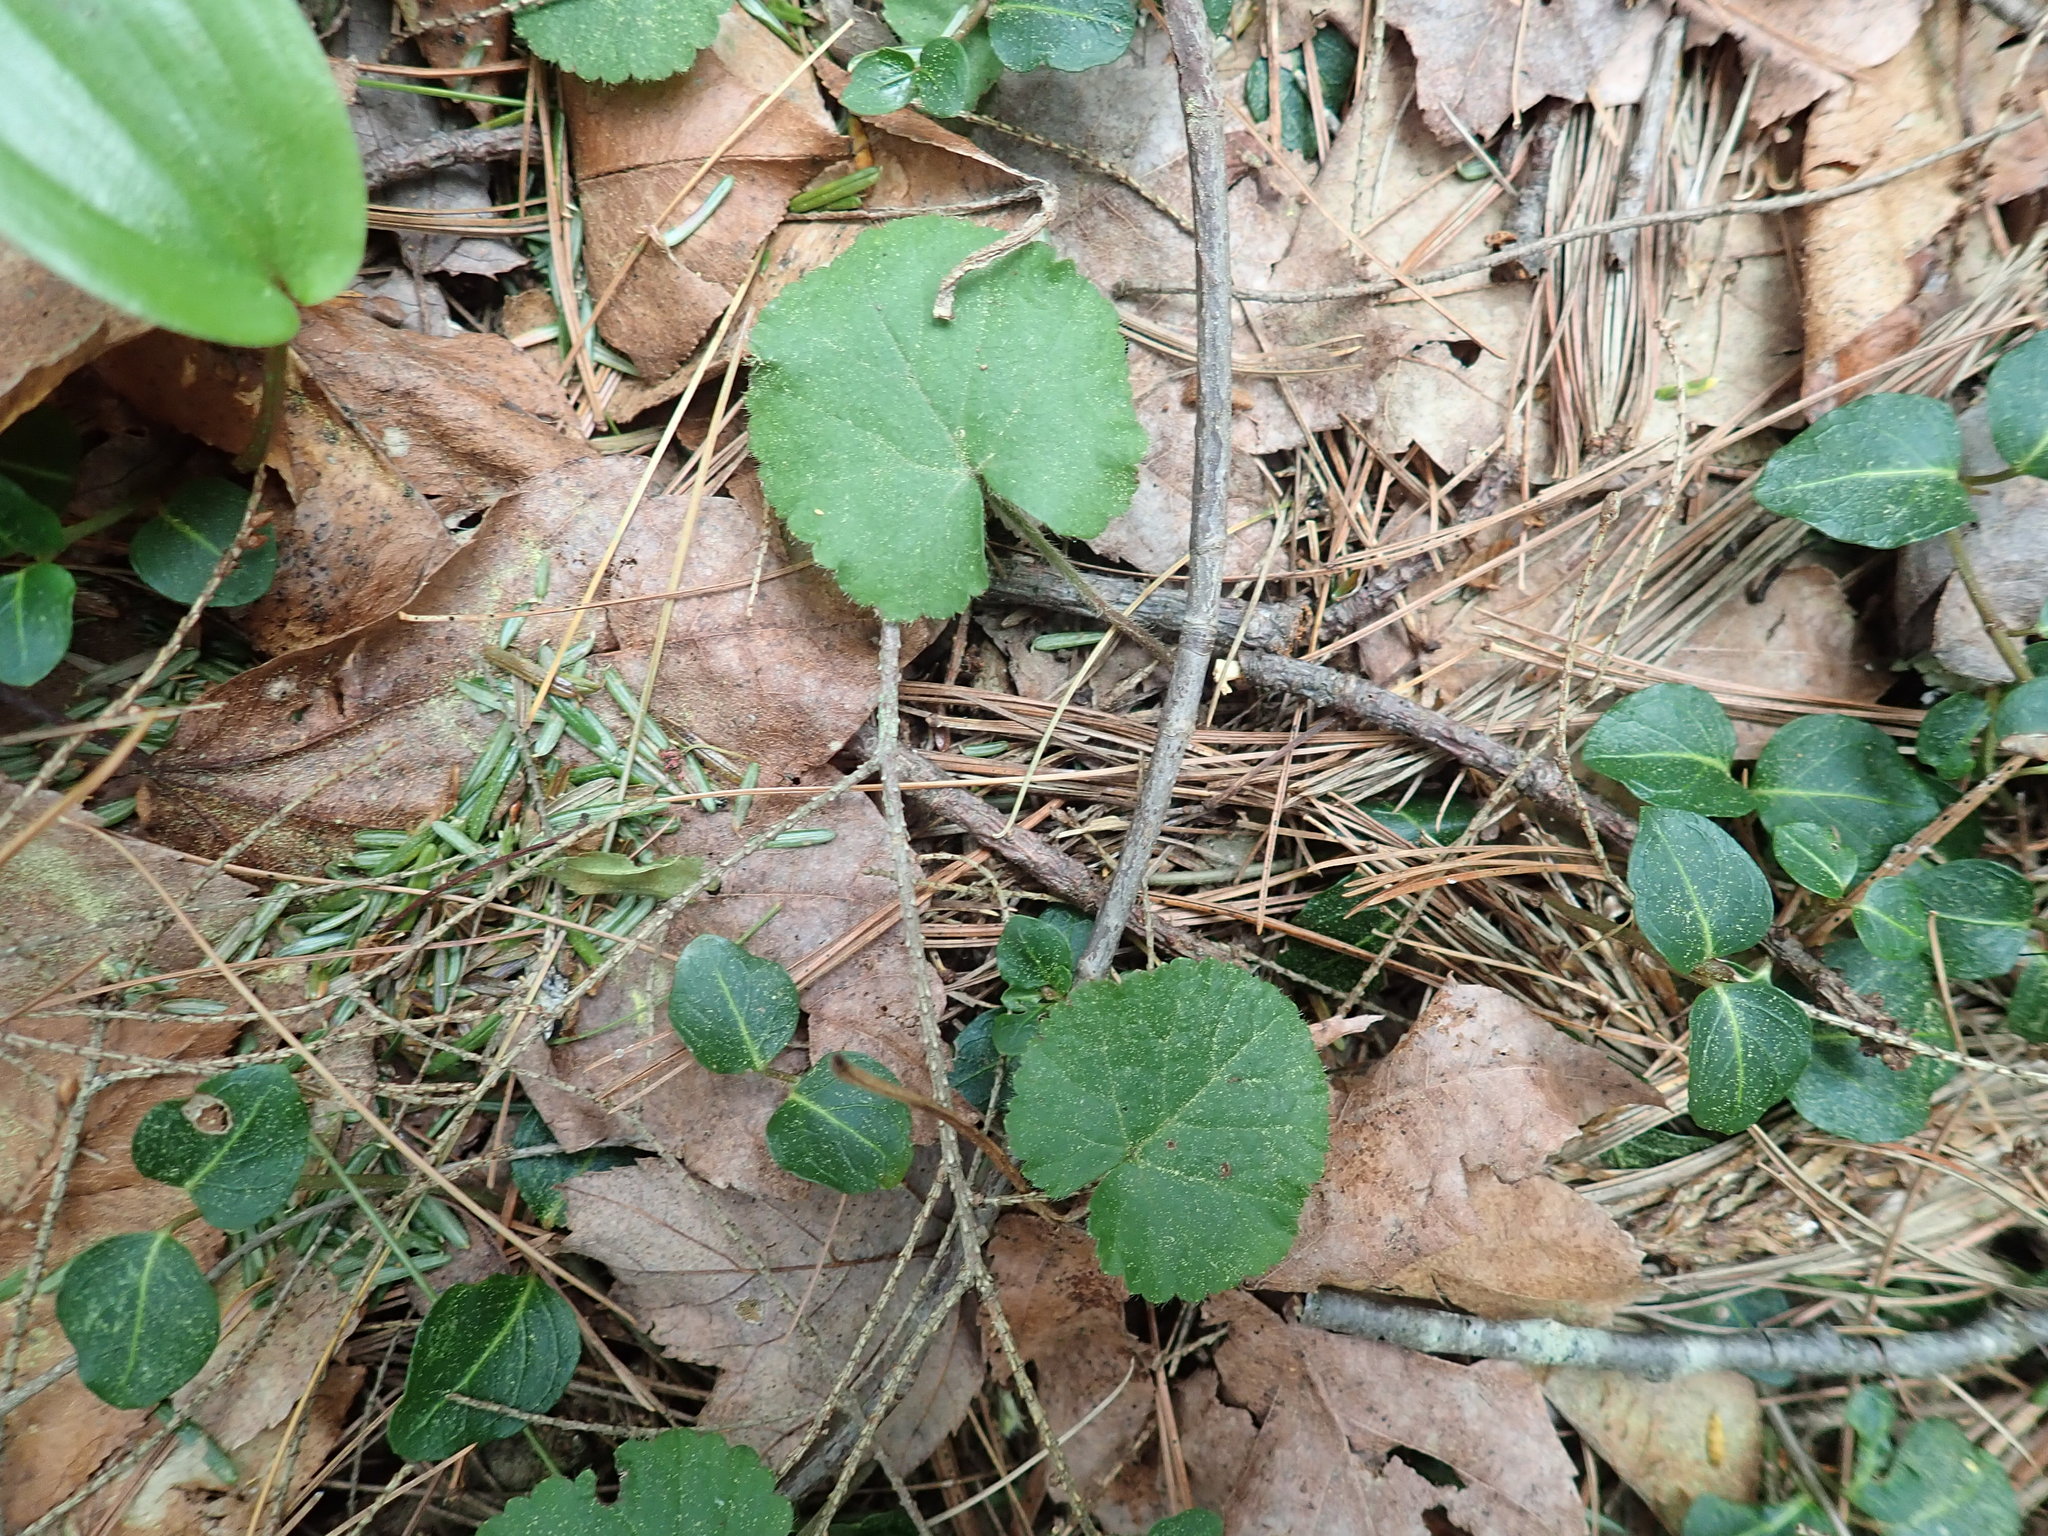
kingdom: Plantae
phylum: Tracheophyta
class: Magnoliopsida
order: Rosales
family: Rosaceae
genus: Dalibarda
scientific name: Dalibarda repens
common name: Dewdrop
